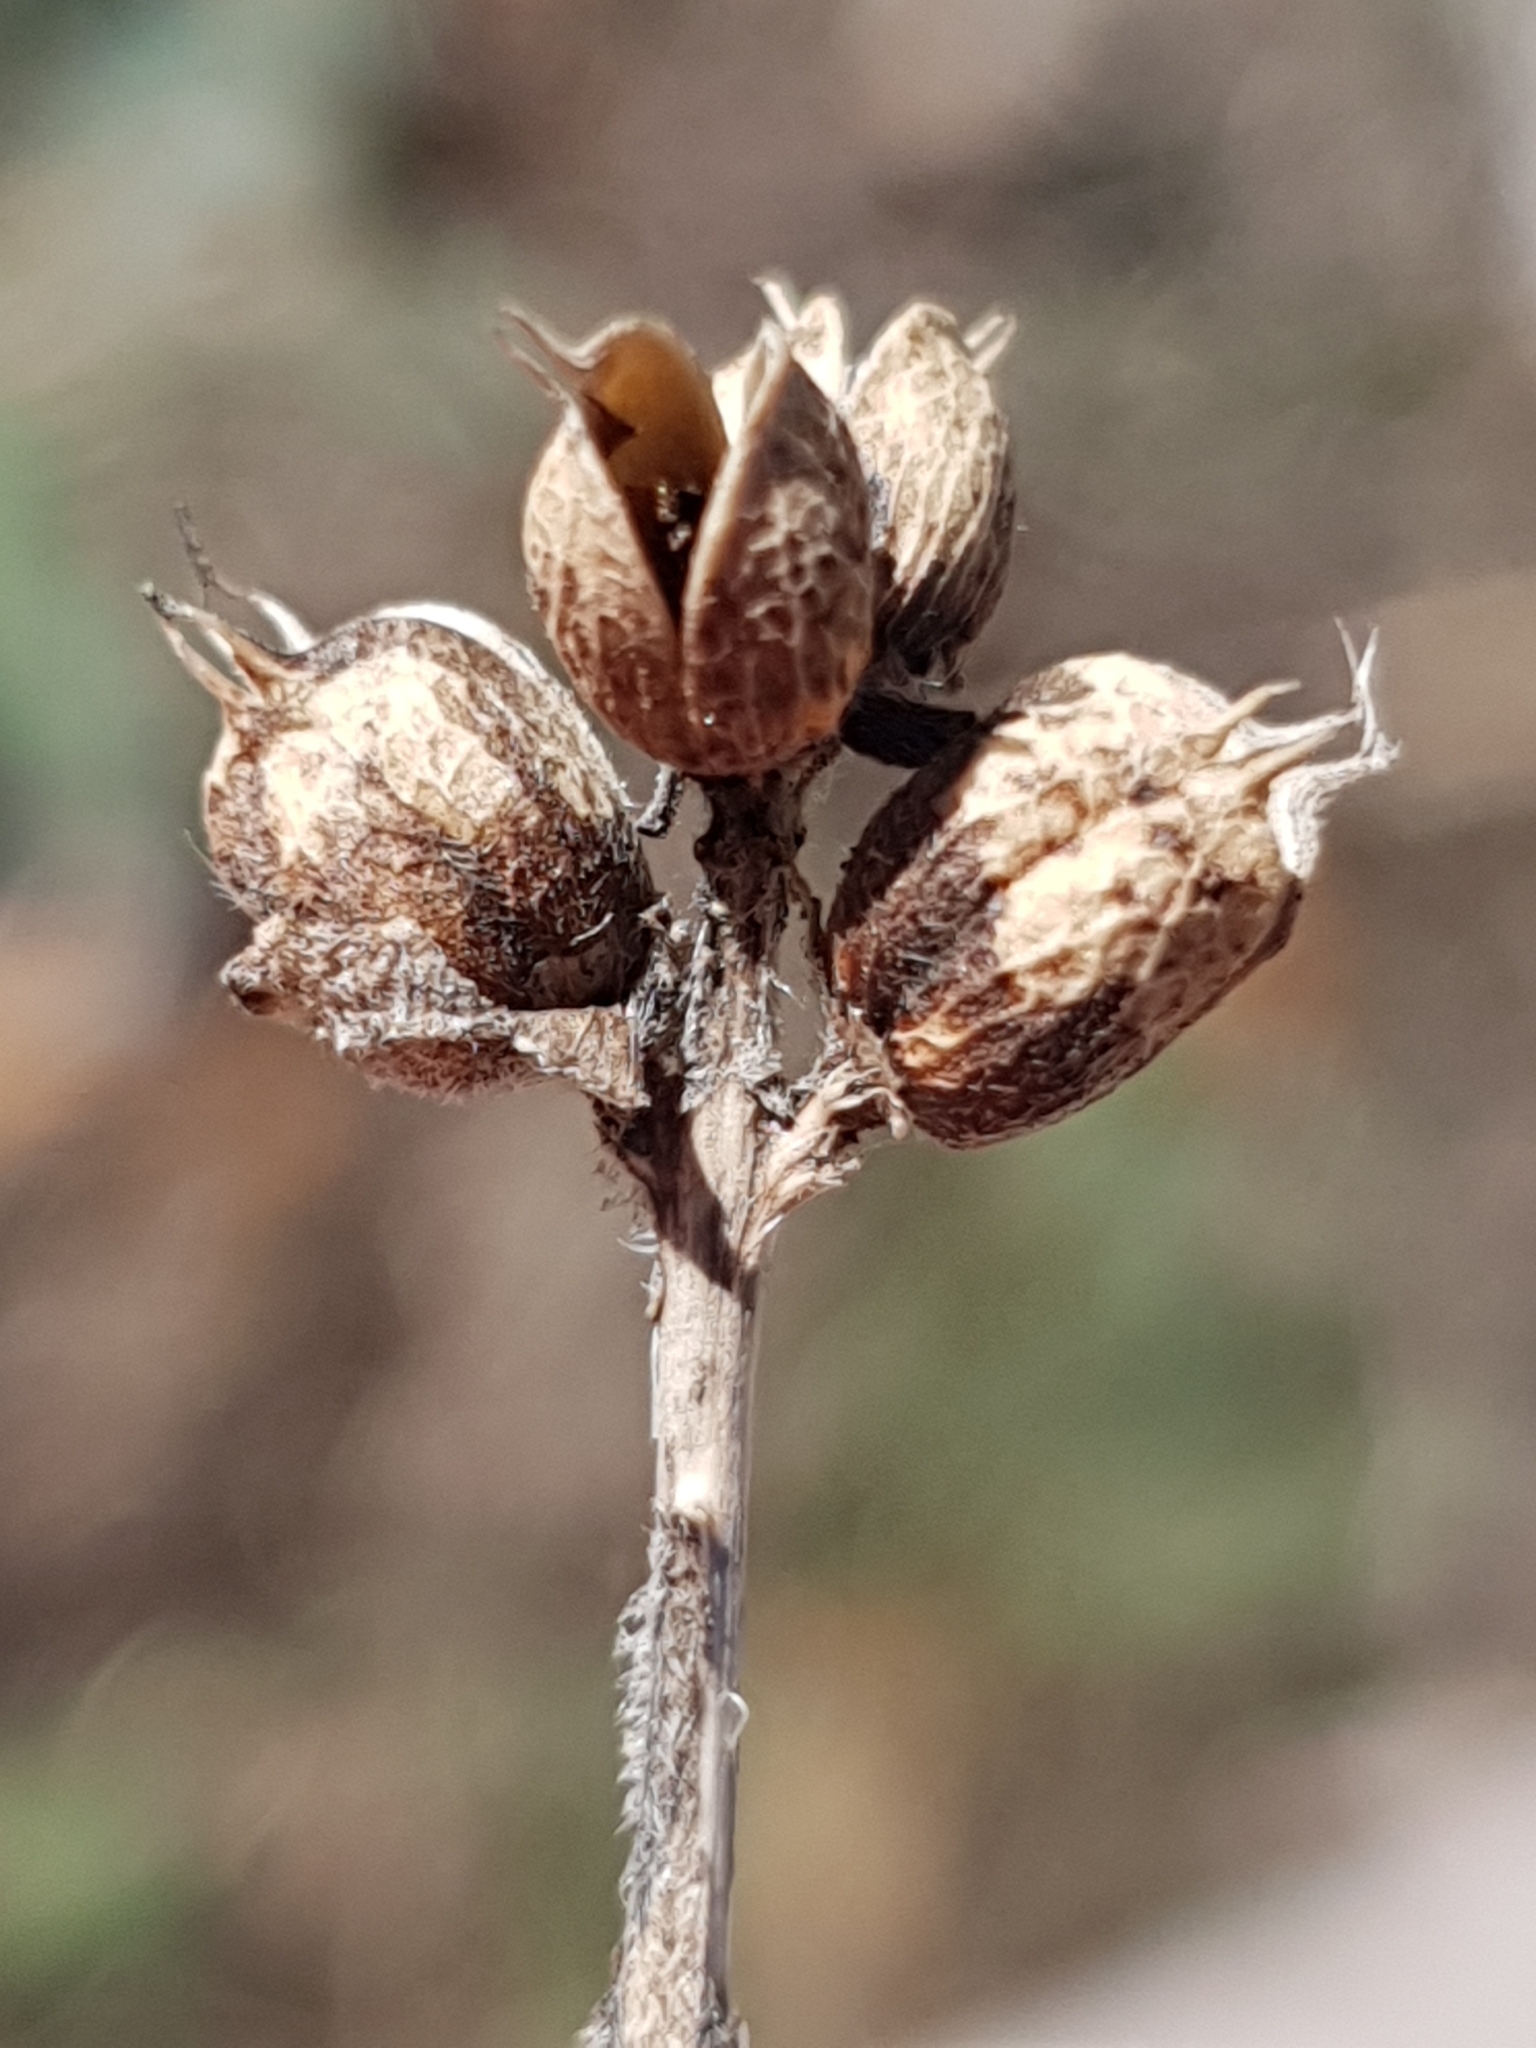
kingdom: Plantae
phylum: Tracheophyta
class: Magnoliopsida
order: Lamiales
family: Orobanchaceae
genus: Bellardia
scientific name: Bellardia trixago
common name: Mediterranean lineseed
